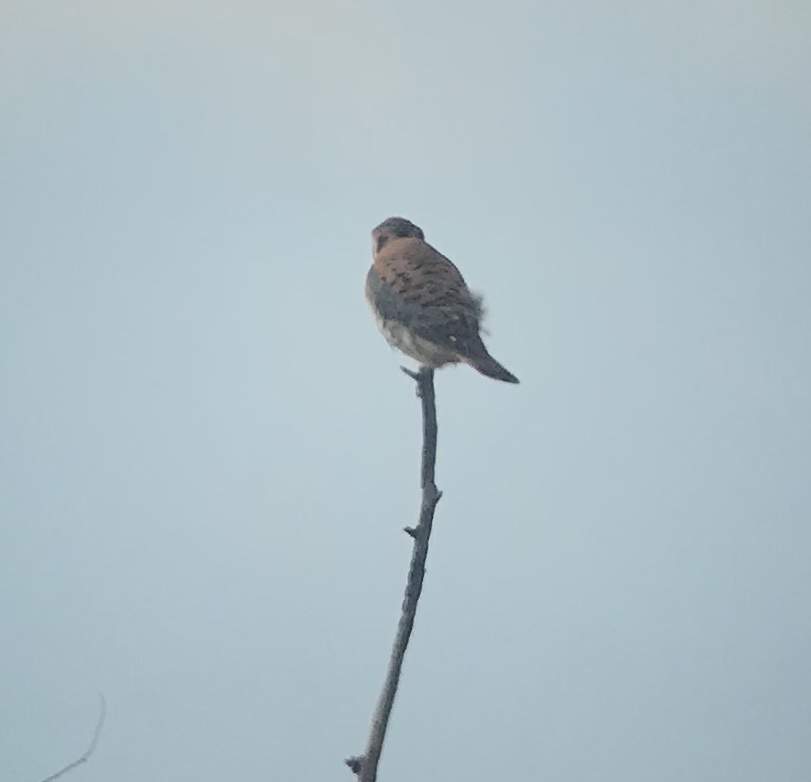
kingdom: Animalia
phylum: Chordata
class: Aves
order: Falconiformes
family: Falconidae
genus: Falco
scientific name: Falco sparverius
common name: American kestrel
